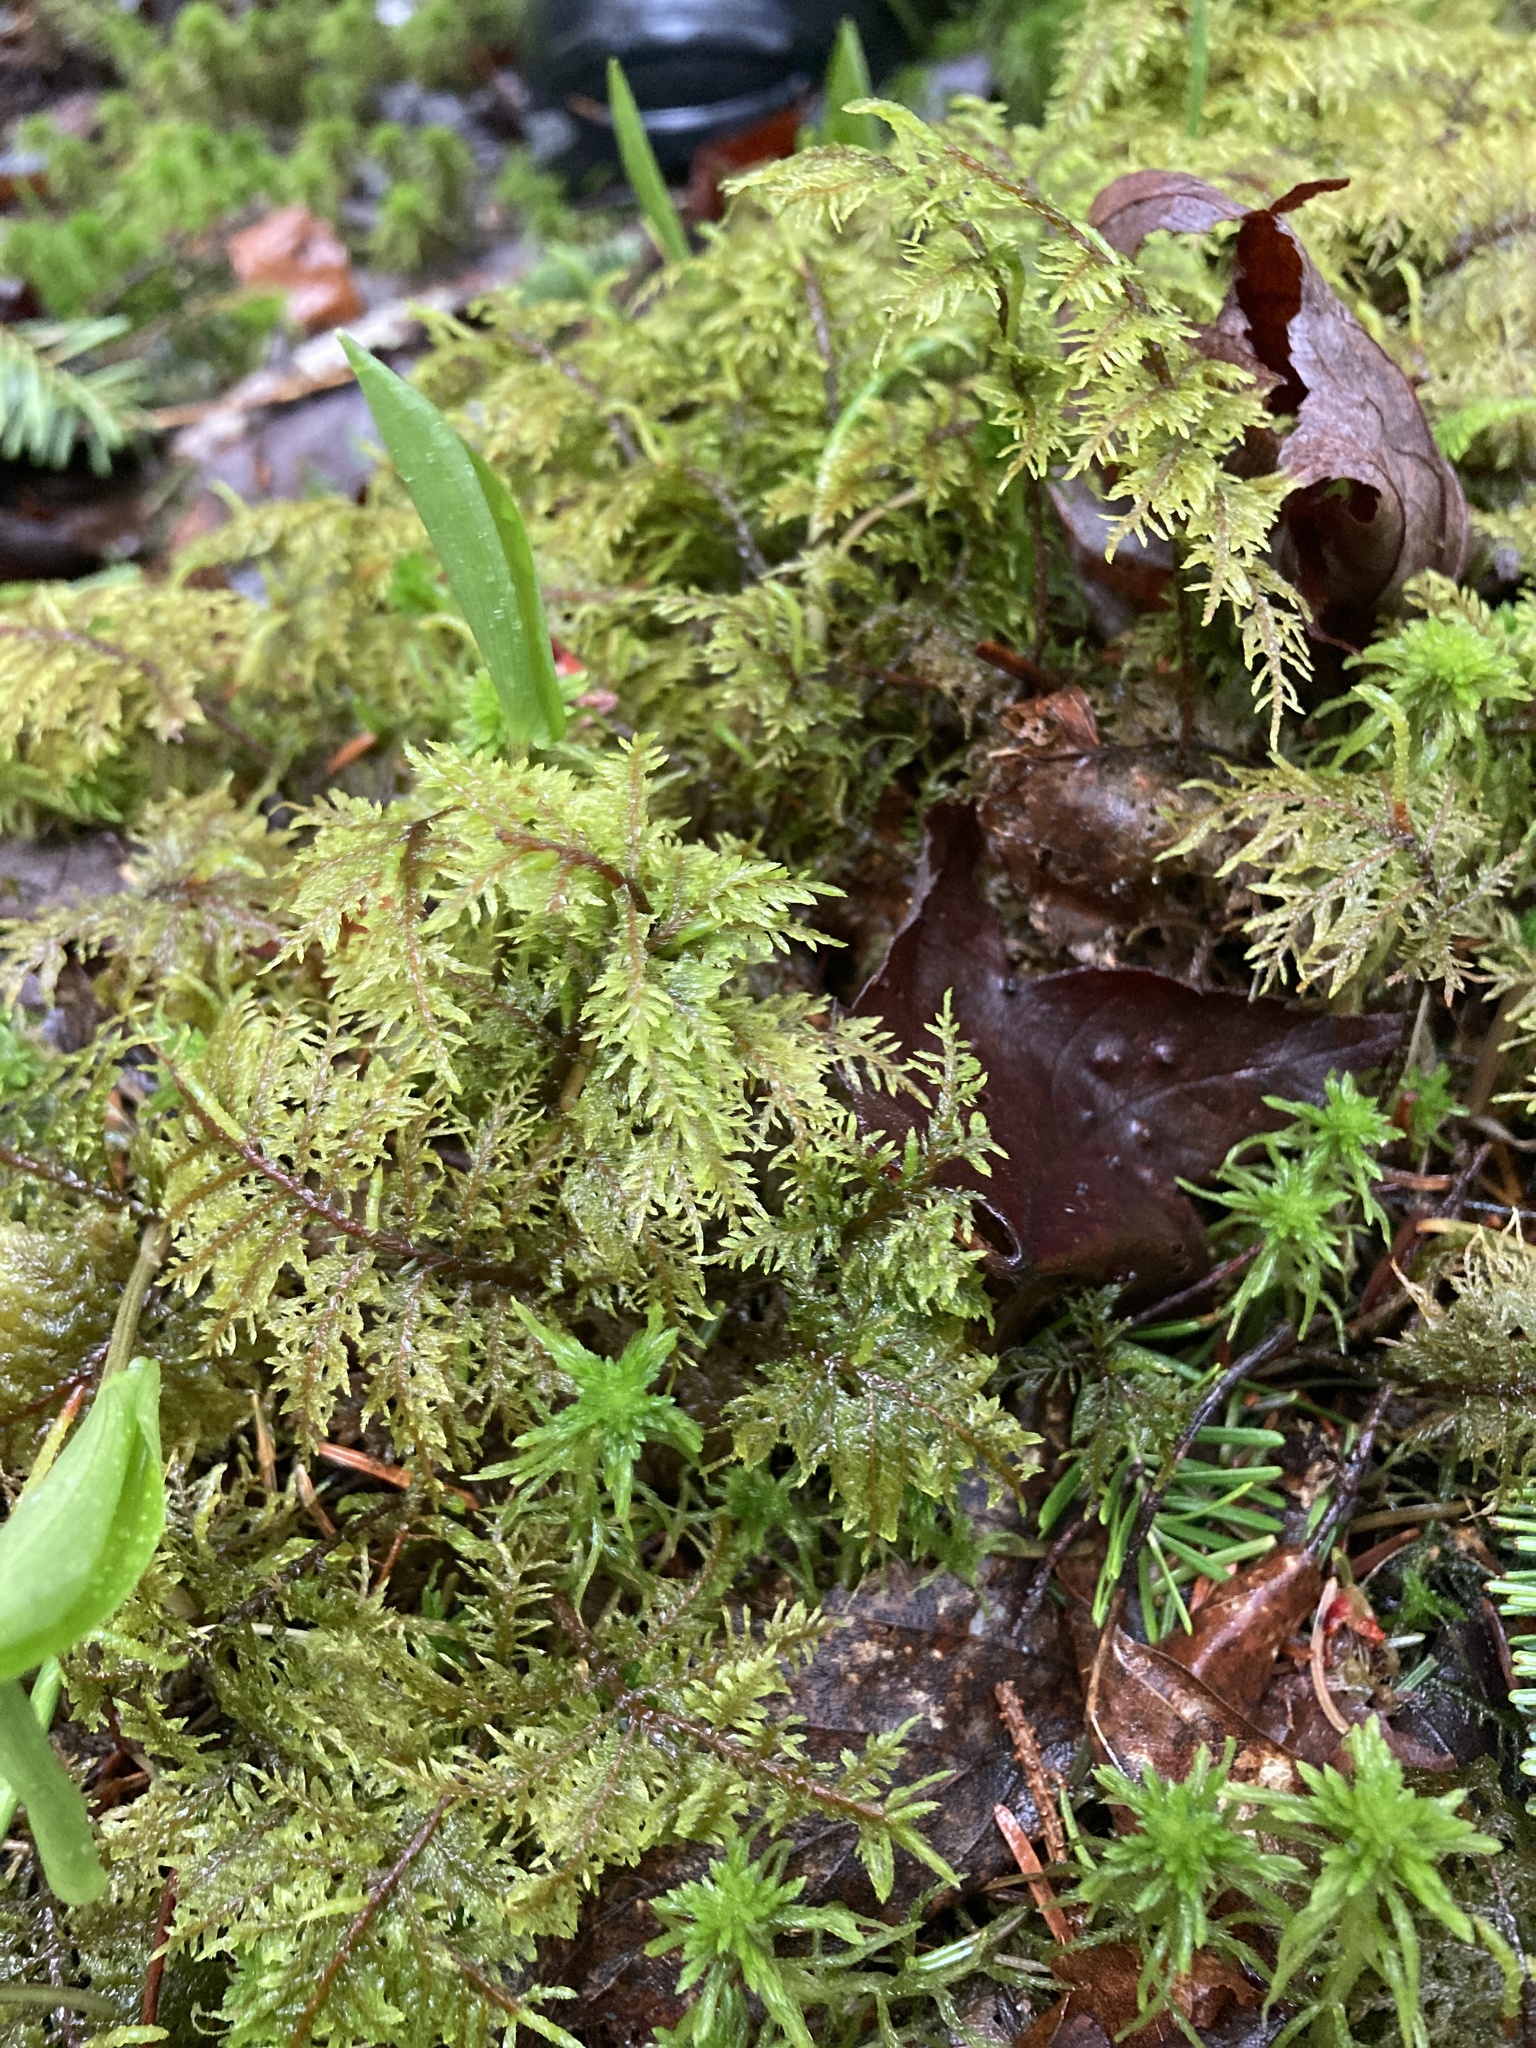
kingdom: Plantae
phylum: Bryophyta
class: Bryopsida
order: Hypnales
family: Hylocomiaceae
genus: Hylocomium
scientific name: Hylocomium splendens
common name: Stairstep moss
